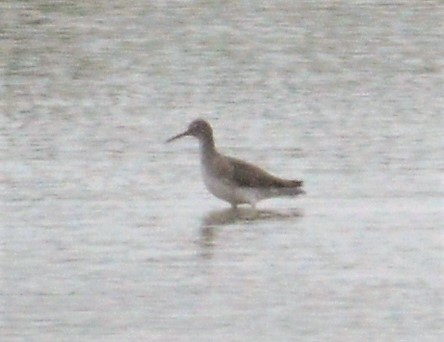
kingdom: Animalia
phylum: Chordata
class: Aves
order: Charadriiformes
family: Scolopacidae
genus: Tringa
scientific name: Tringa nebularia
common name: Common greenshank
